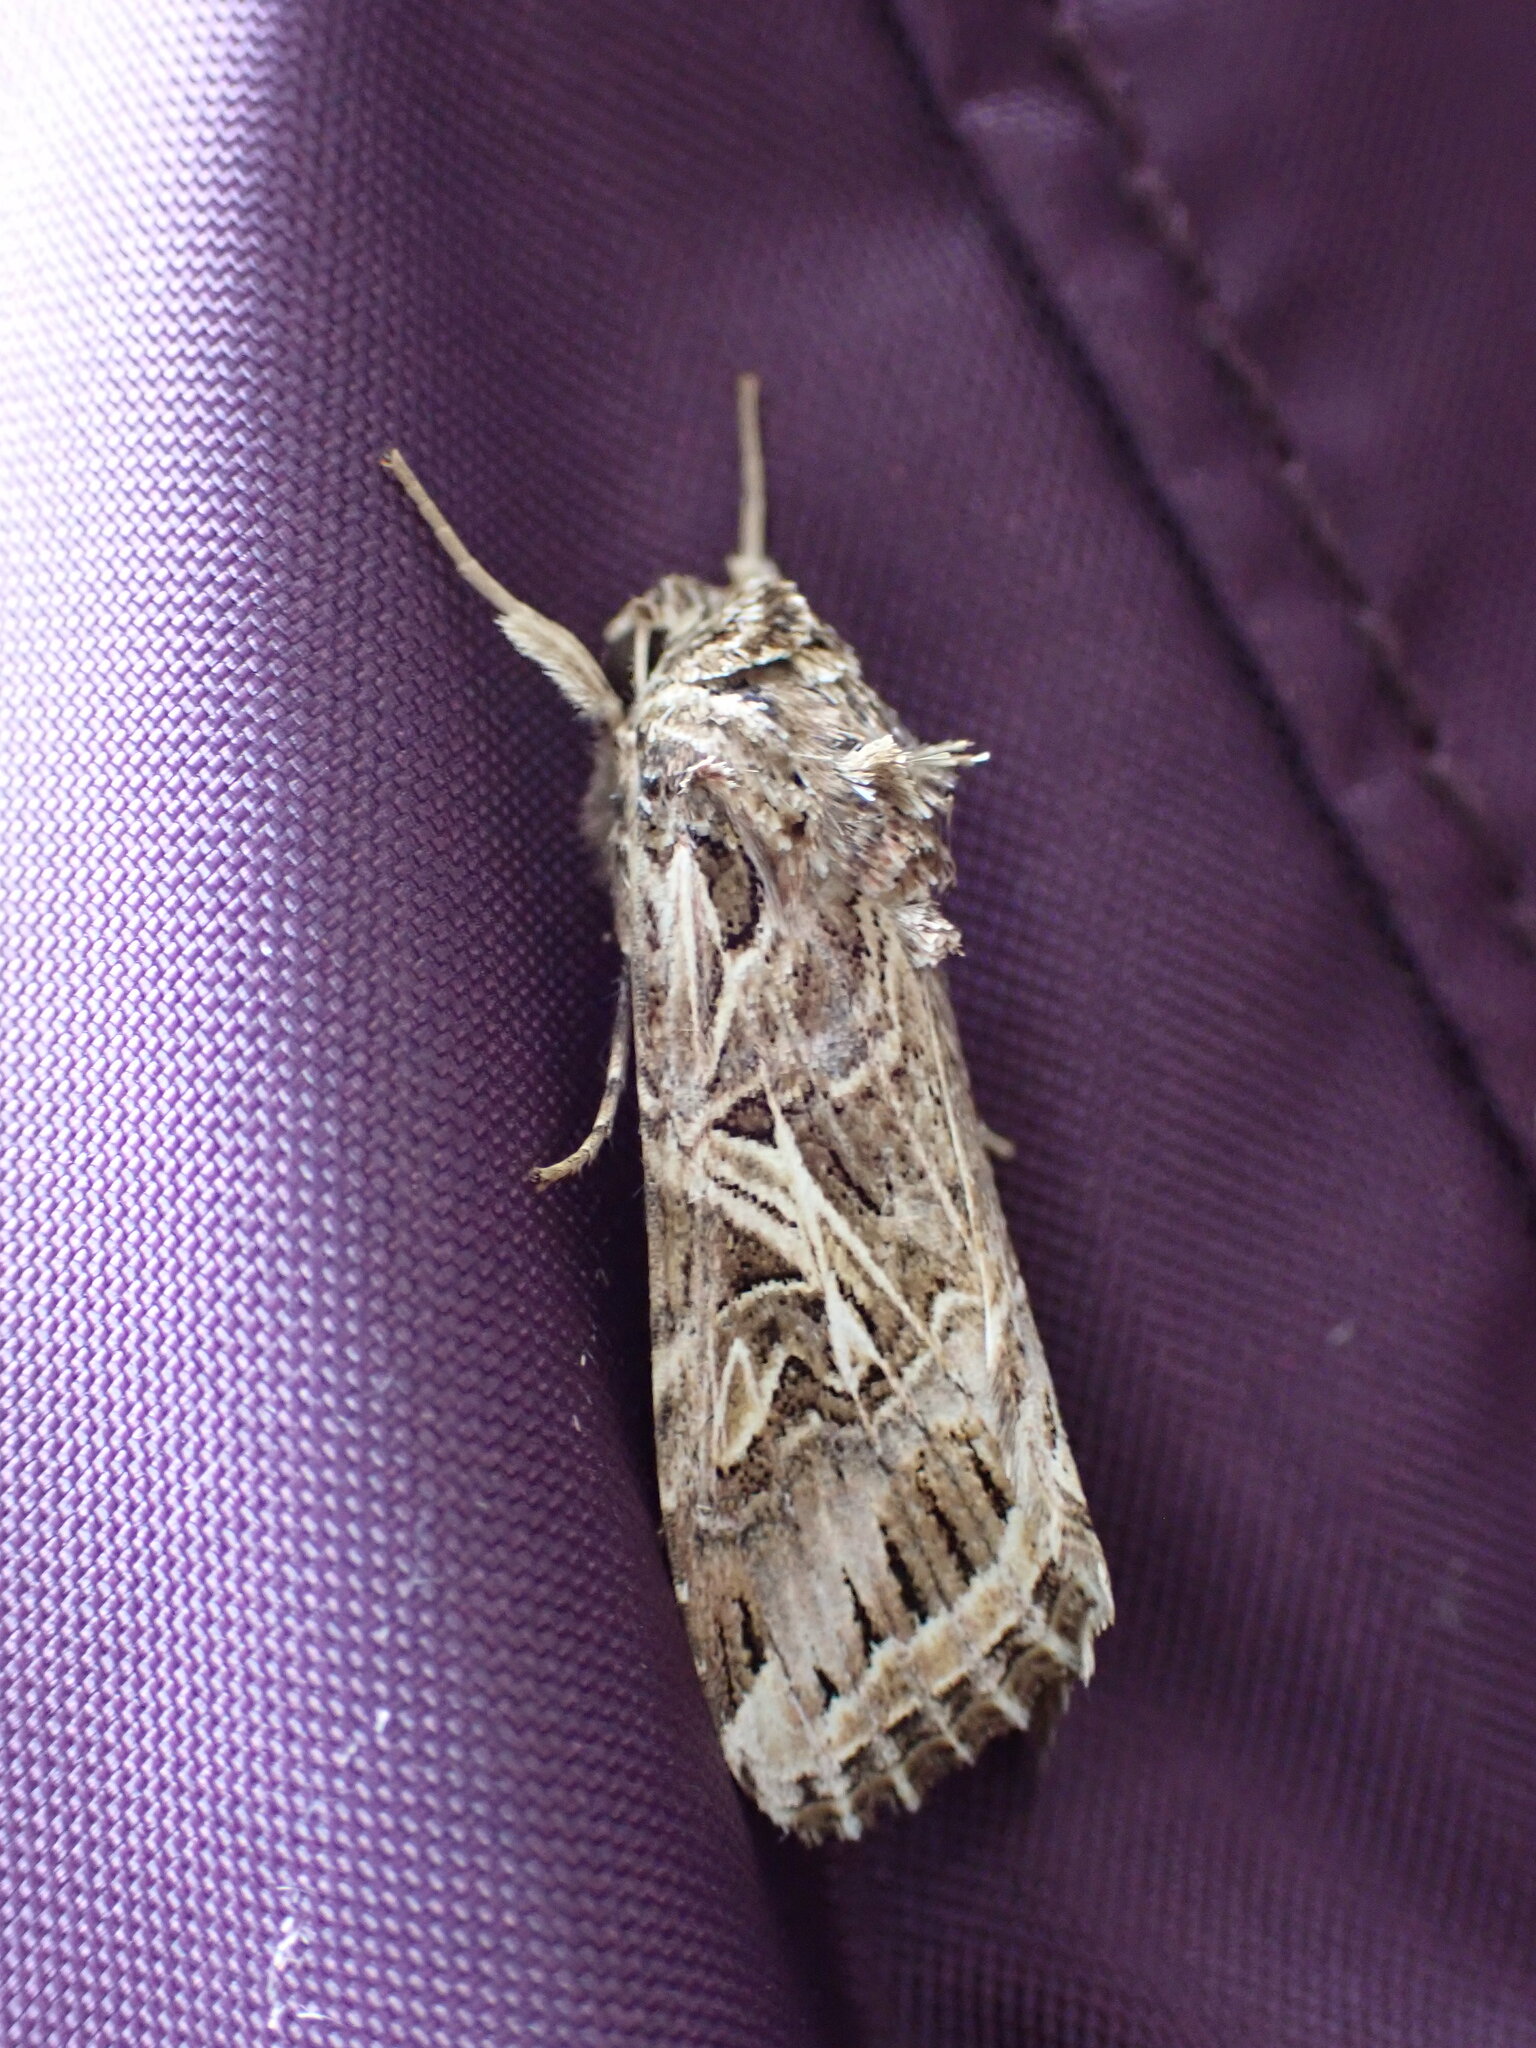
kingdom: Animalia
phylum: Arthropoda
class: Insecta
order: Lepidoptera
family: Noctuidae
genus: Spodoptera
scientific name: Spodoptera litura
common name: Asian cotton leafworm
